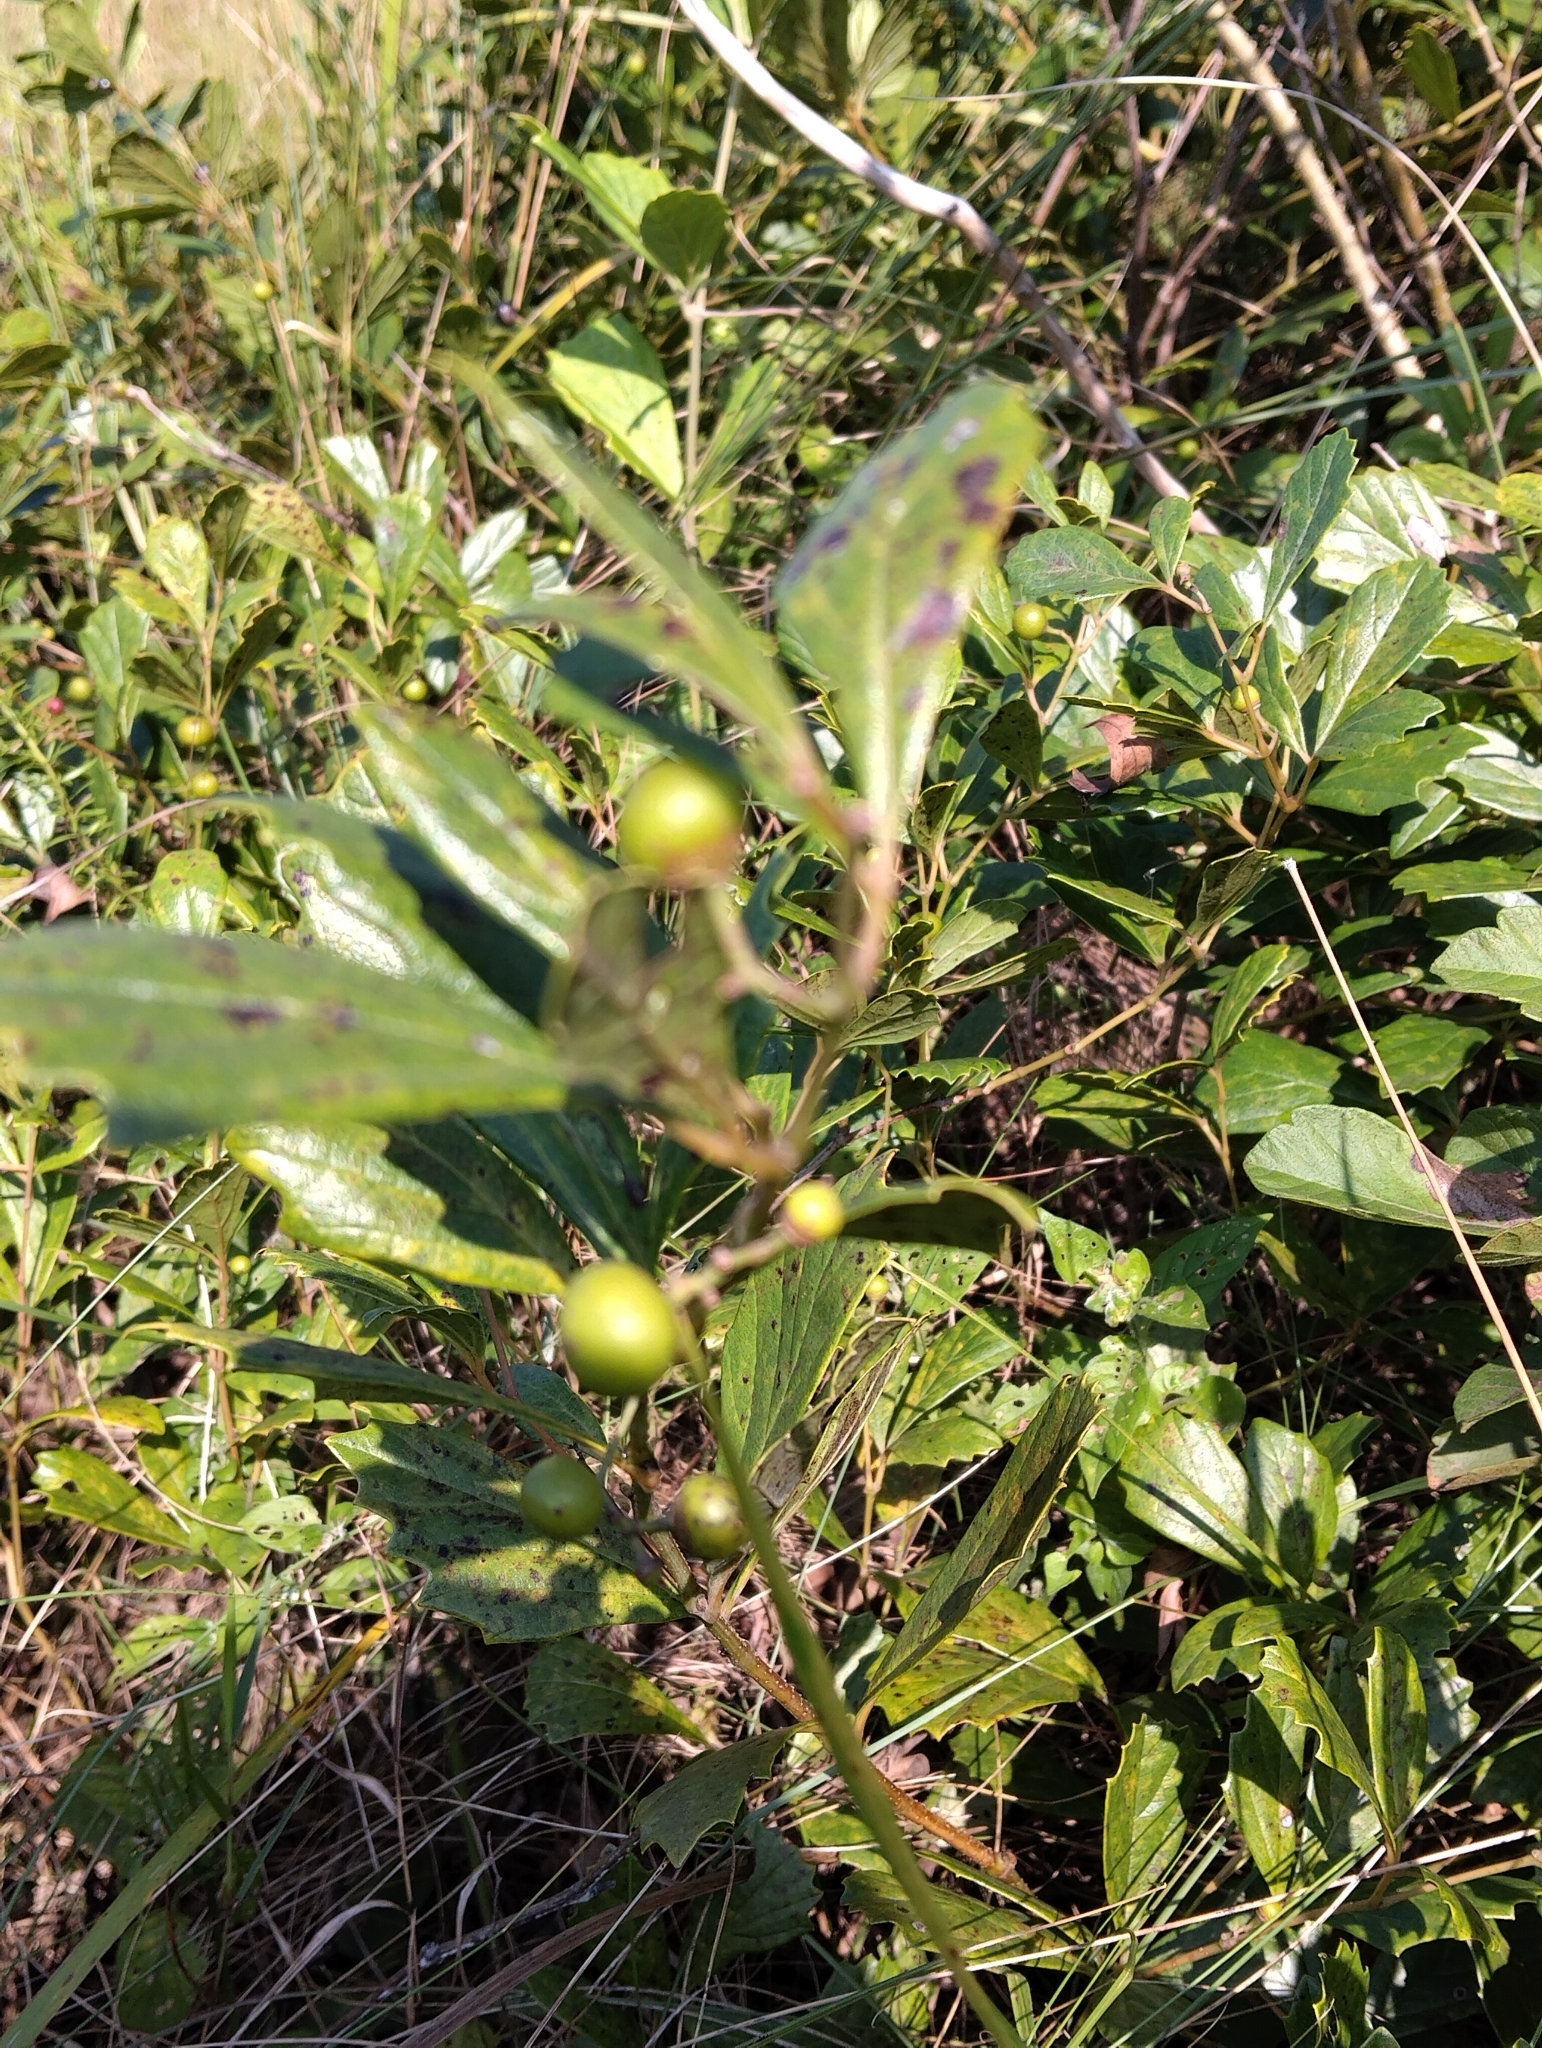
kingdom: Plantae
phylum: Tracheophyta
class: Magnoliopsida
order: Vitales
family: Vitaceae
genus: Rhoicissus
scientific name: Rhoicissus tridentata
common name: Common forest grape
